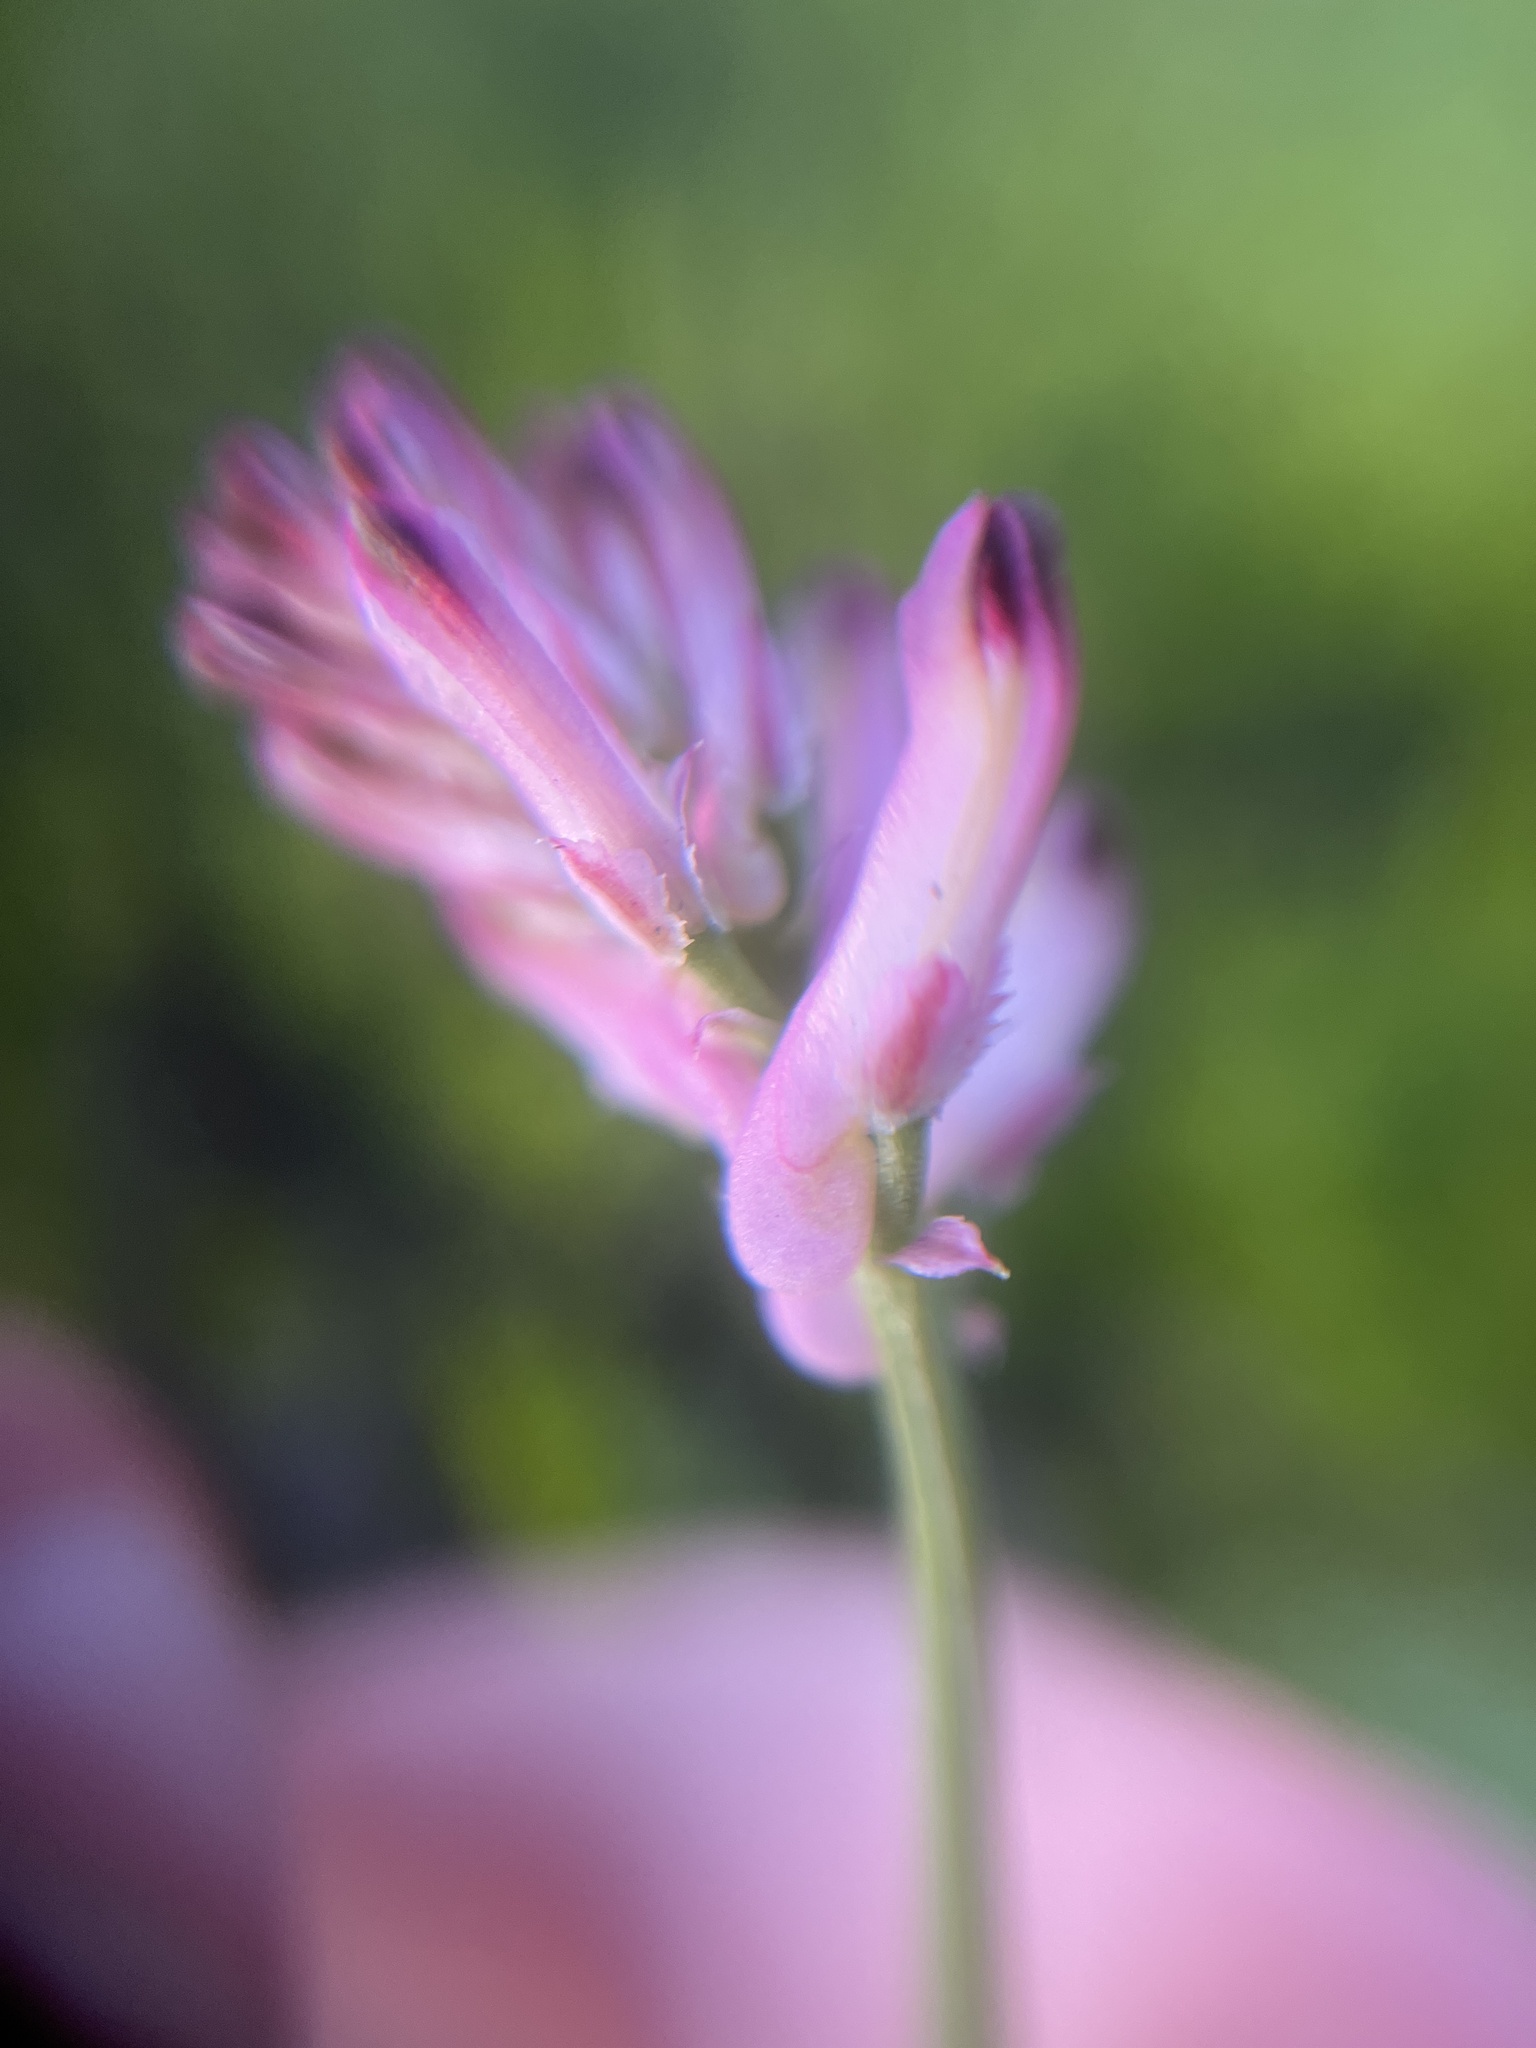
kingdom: Plantae
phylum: Tracheophyta
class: Magnoliopsida
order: Ranunculales
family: Papaveraceae
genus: Fumaria
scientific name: Fumaria bastardii
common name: Tall ramping-fumitory
